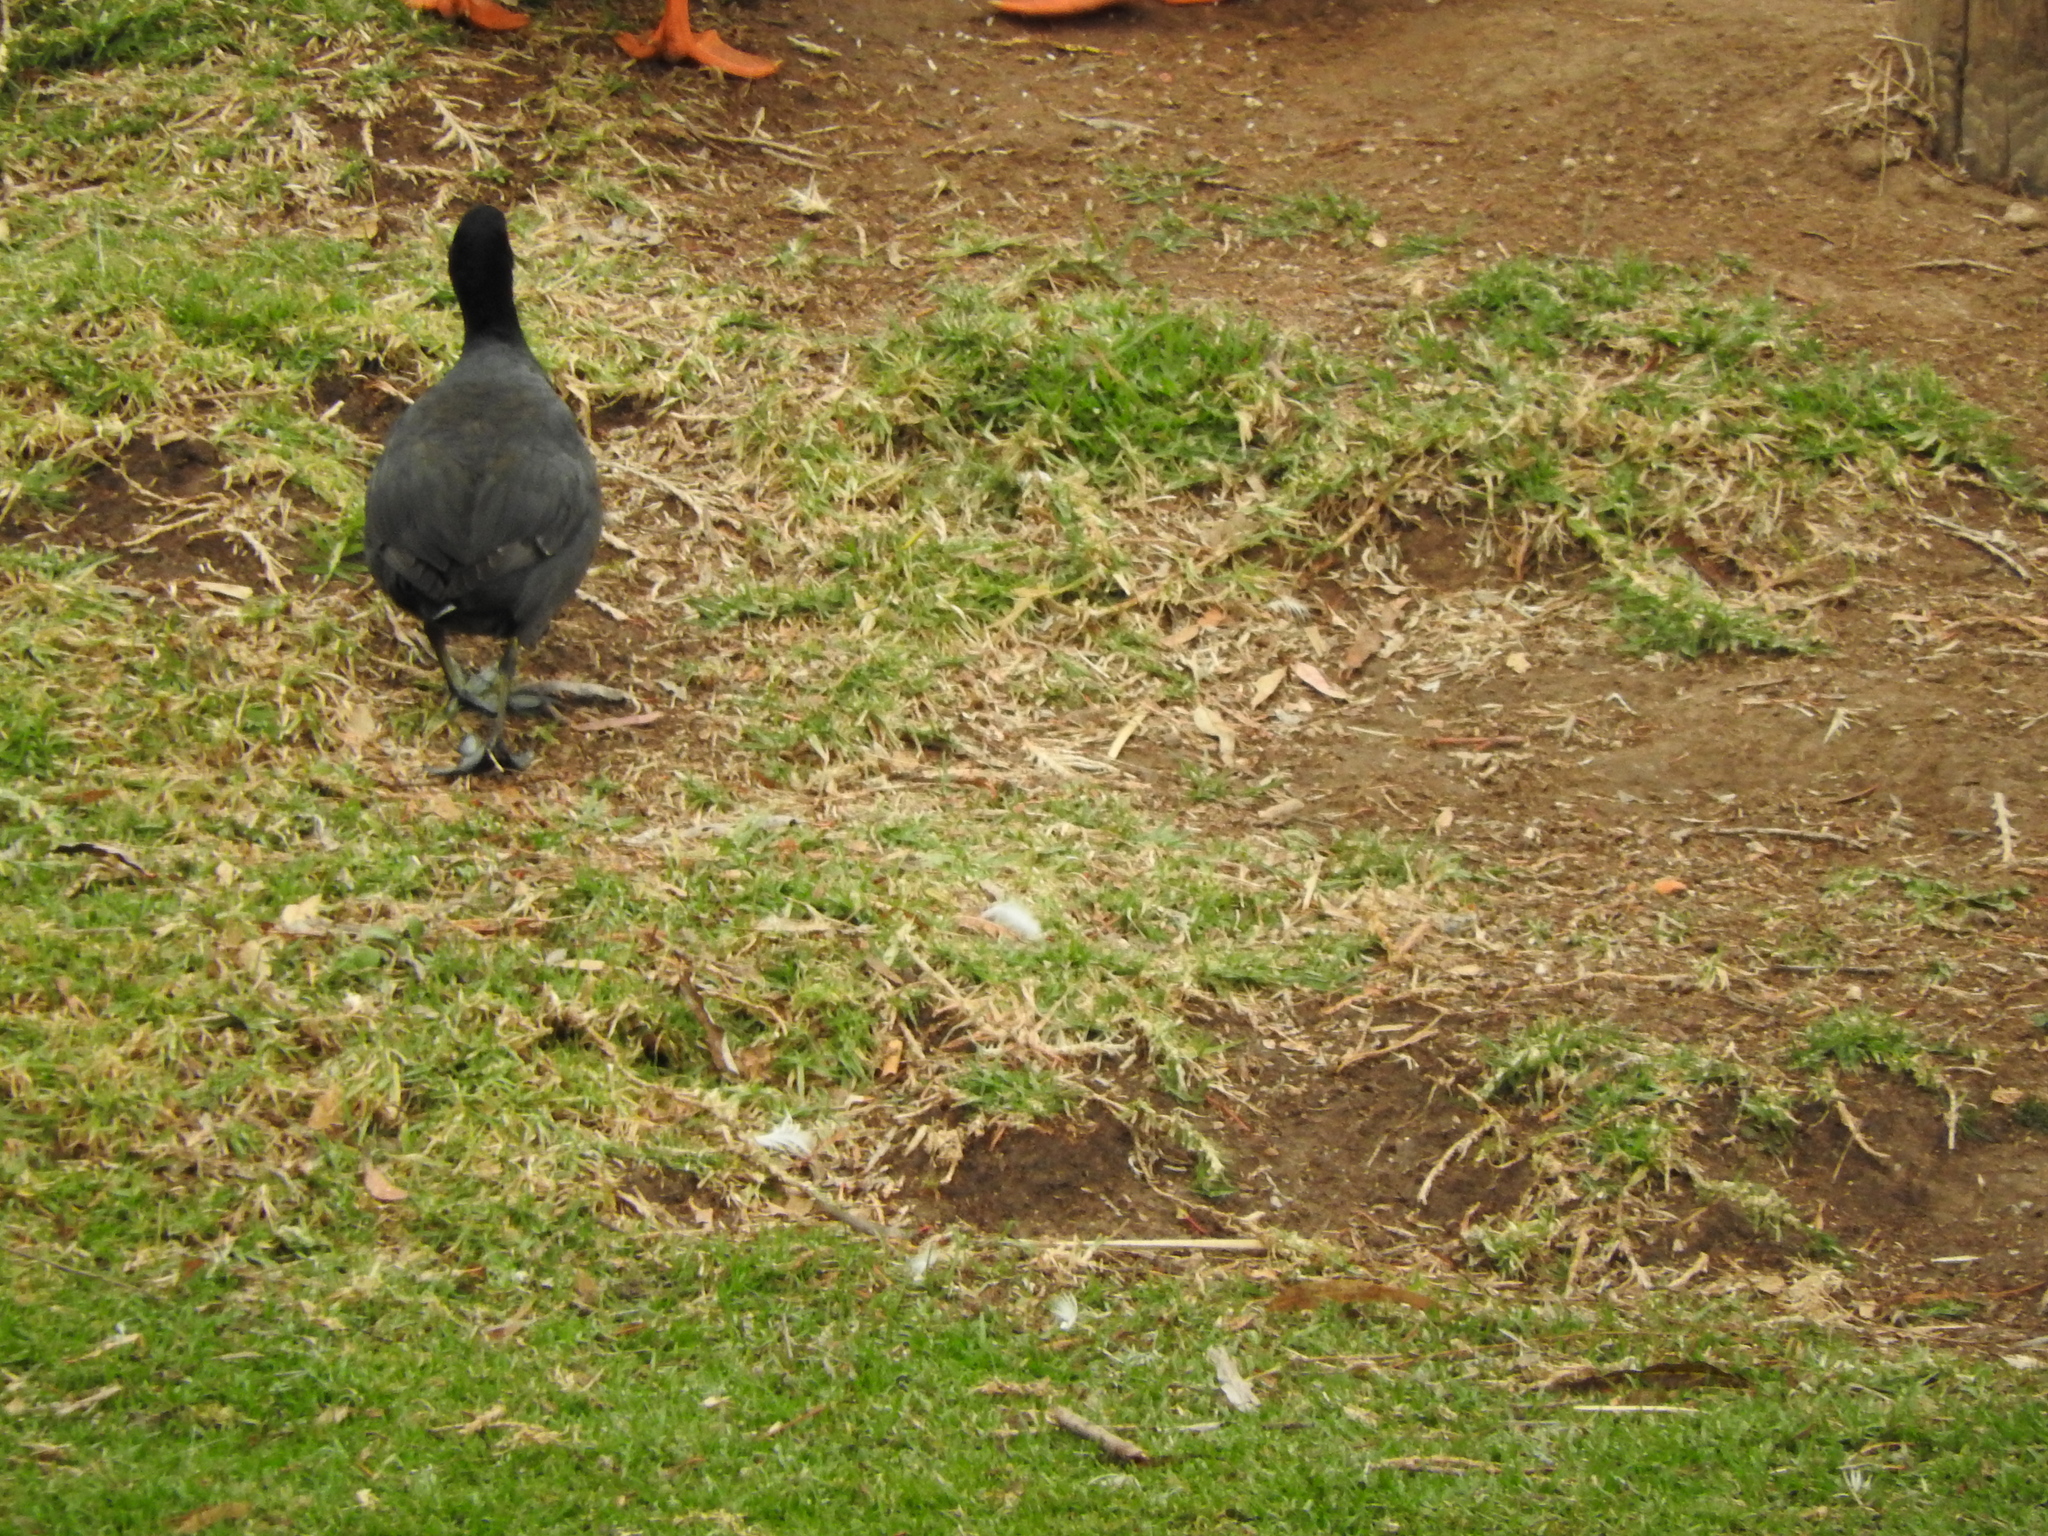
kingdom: Animalia
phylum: Chordata
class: Aves
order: Gruiformes
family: Rallidae
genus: Fulica
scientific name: Fulica americana
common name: American coot
